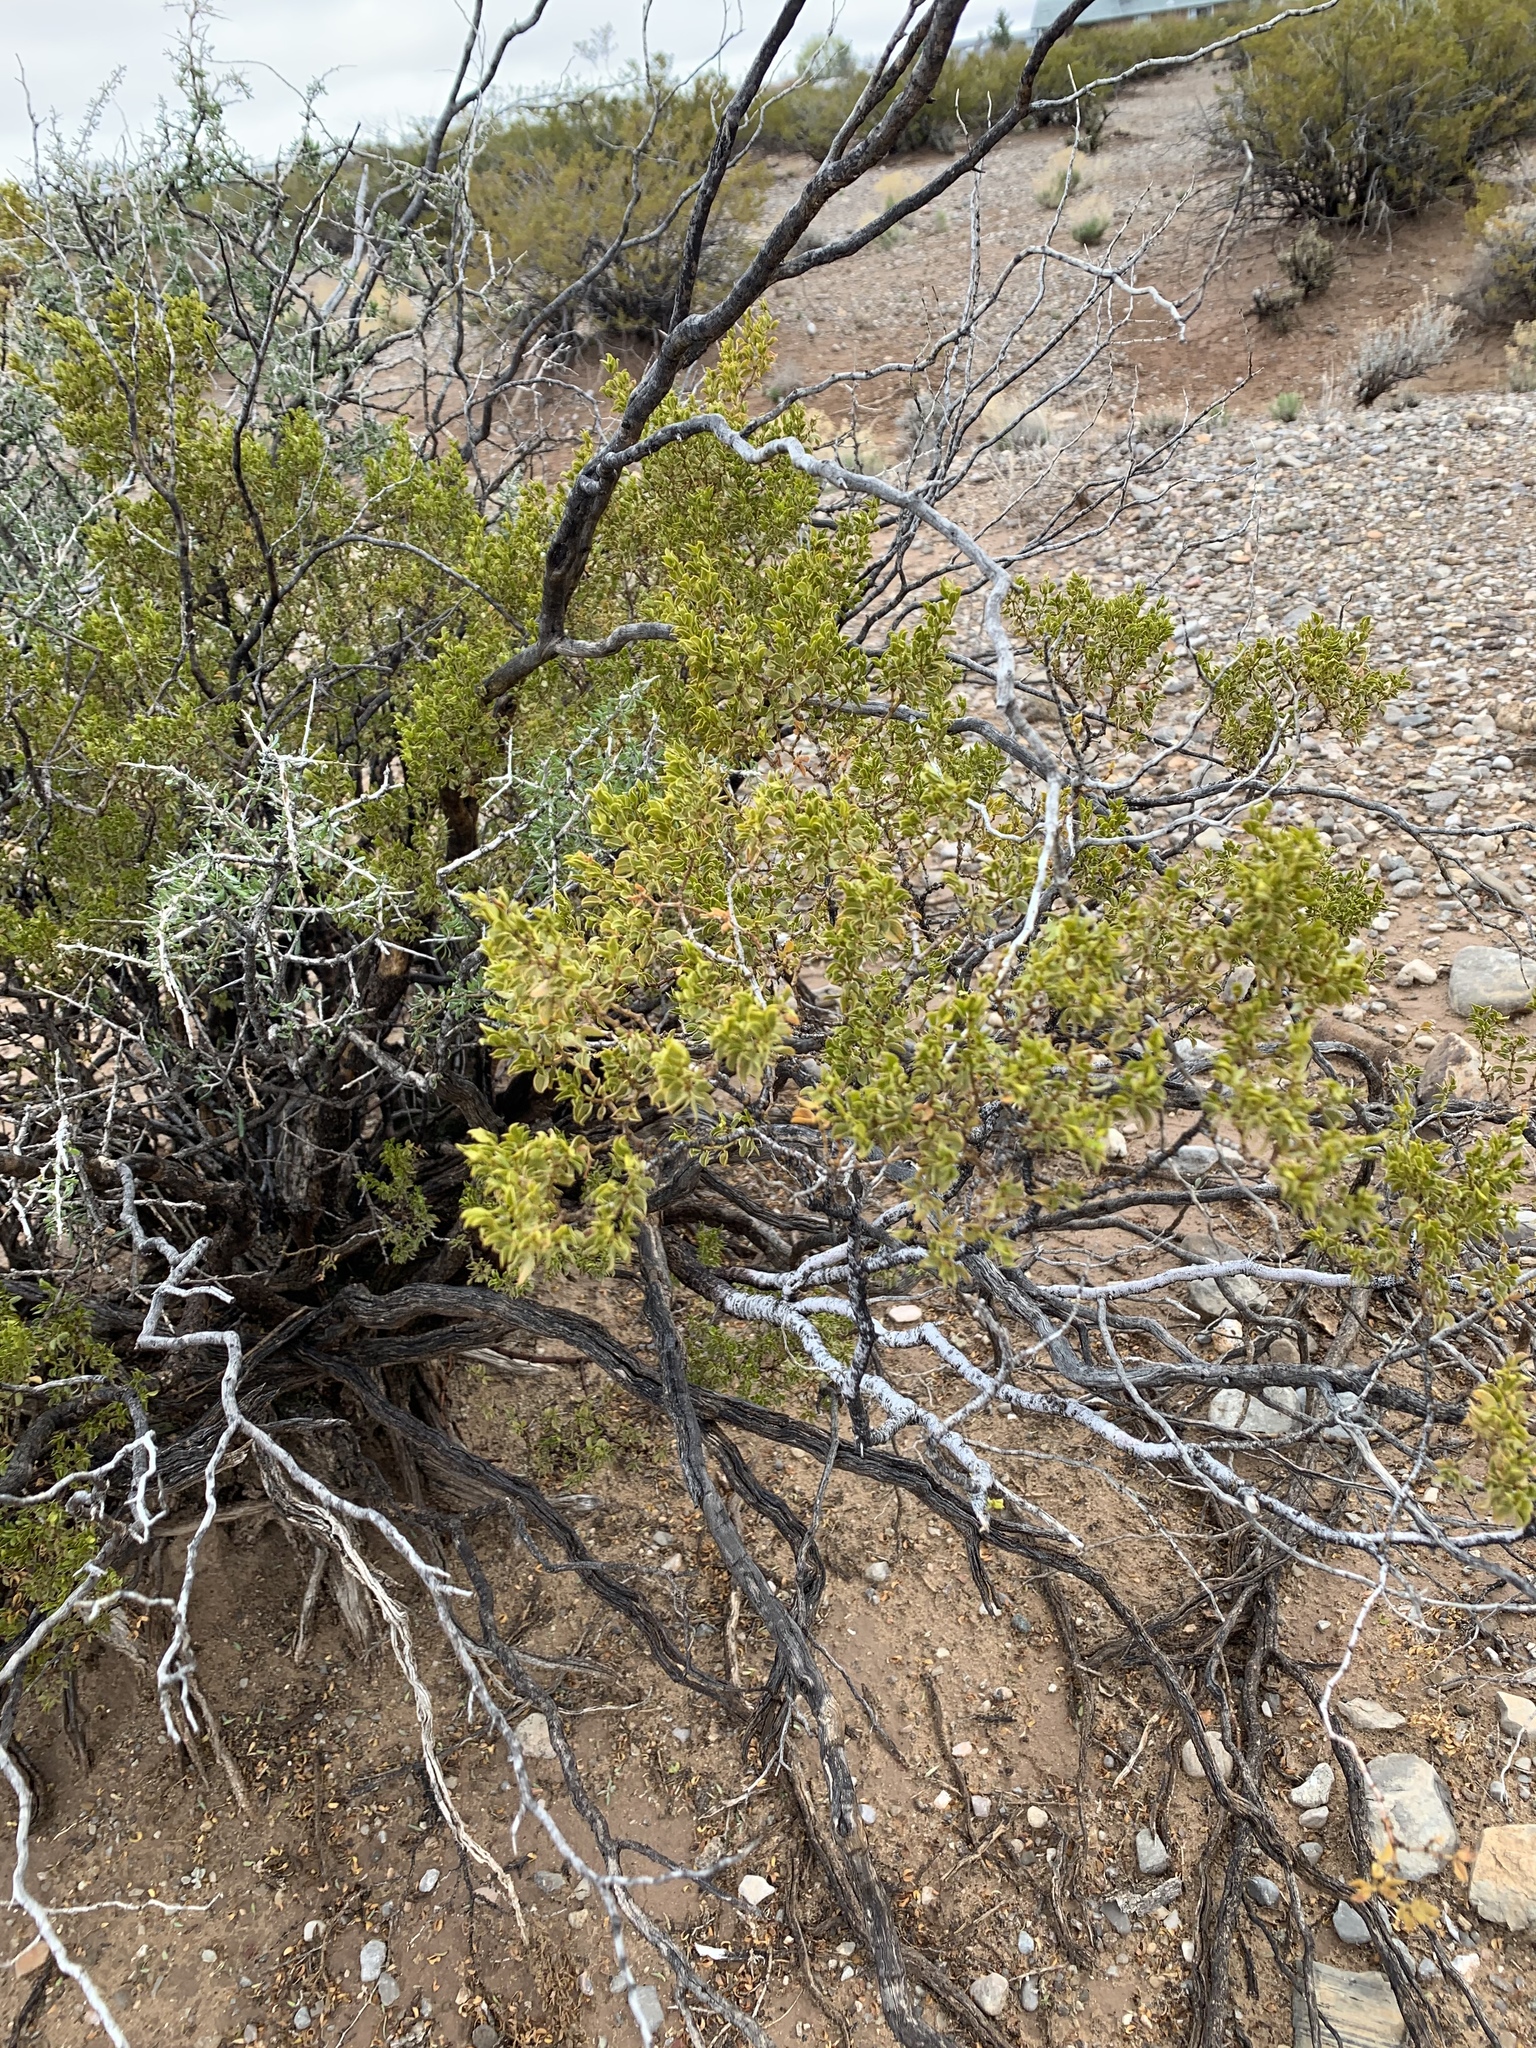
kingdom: Plantae
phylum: Tracheophyta
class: Magnoliopsida
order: Zygophyllales
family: Zygophyllaceae
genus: Larrea
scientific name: Larrea tridentata
